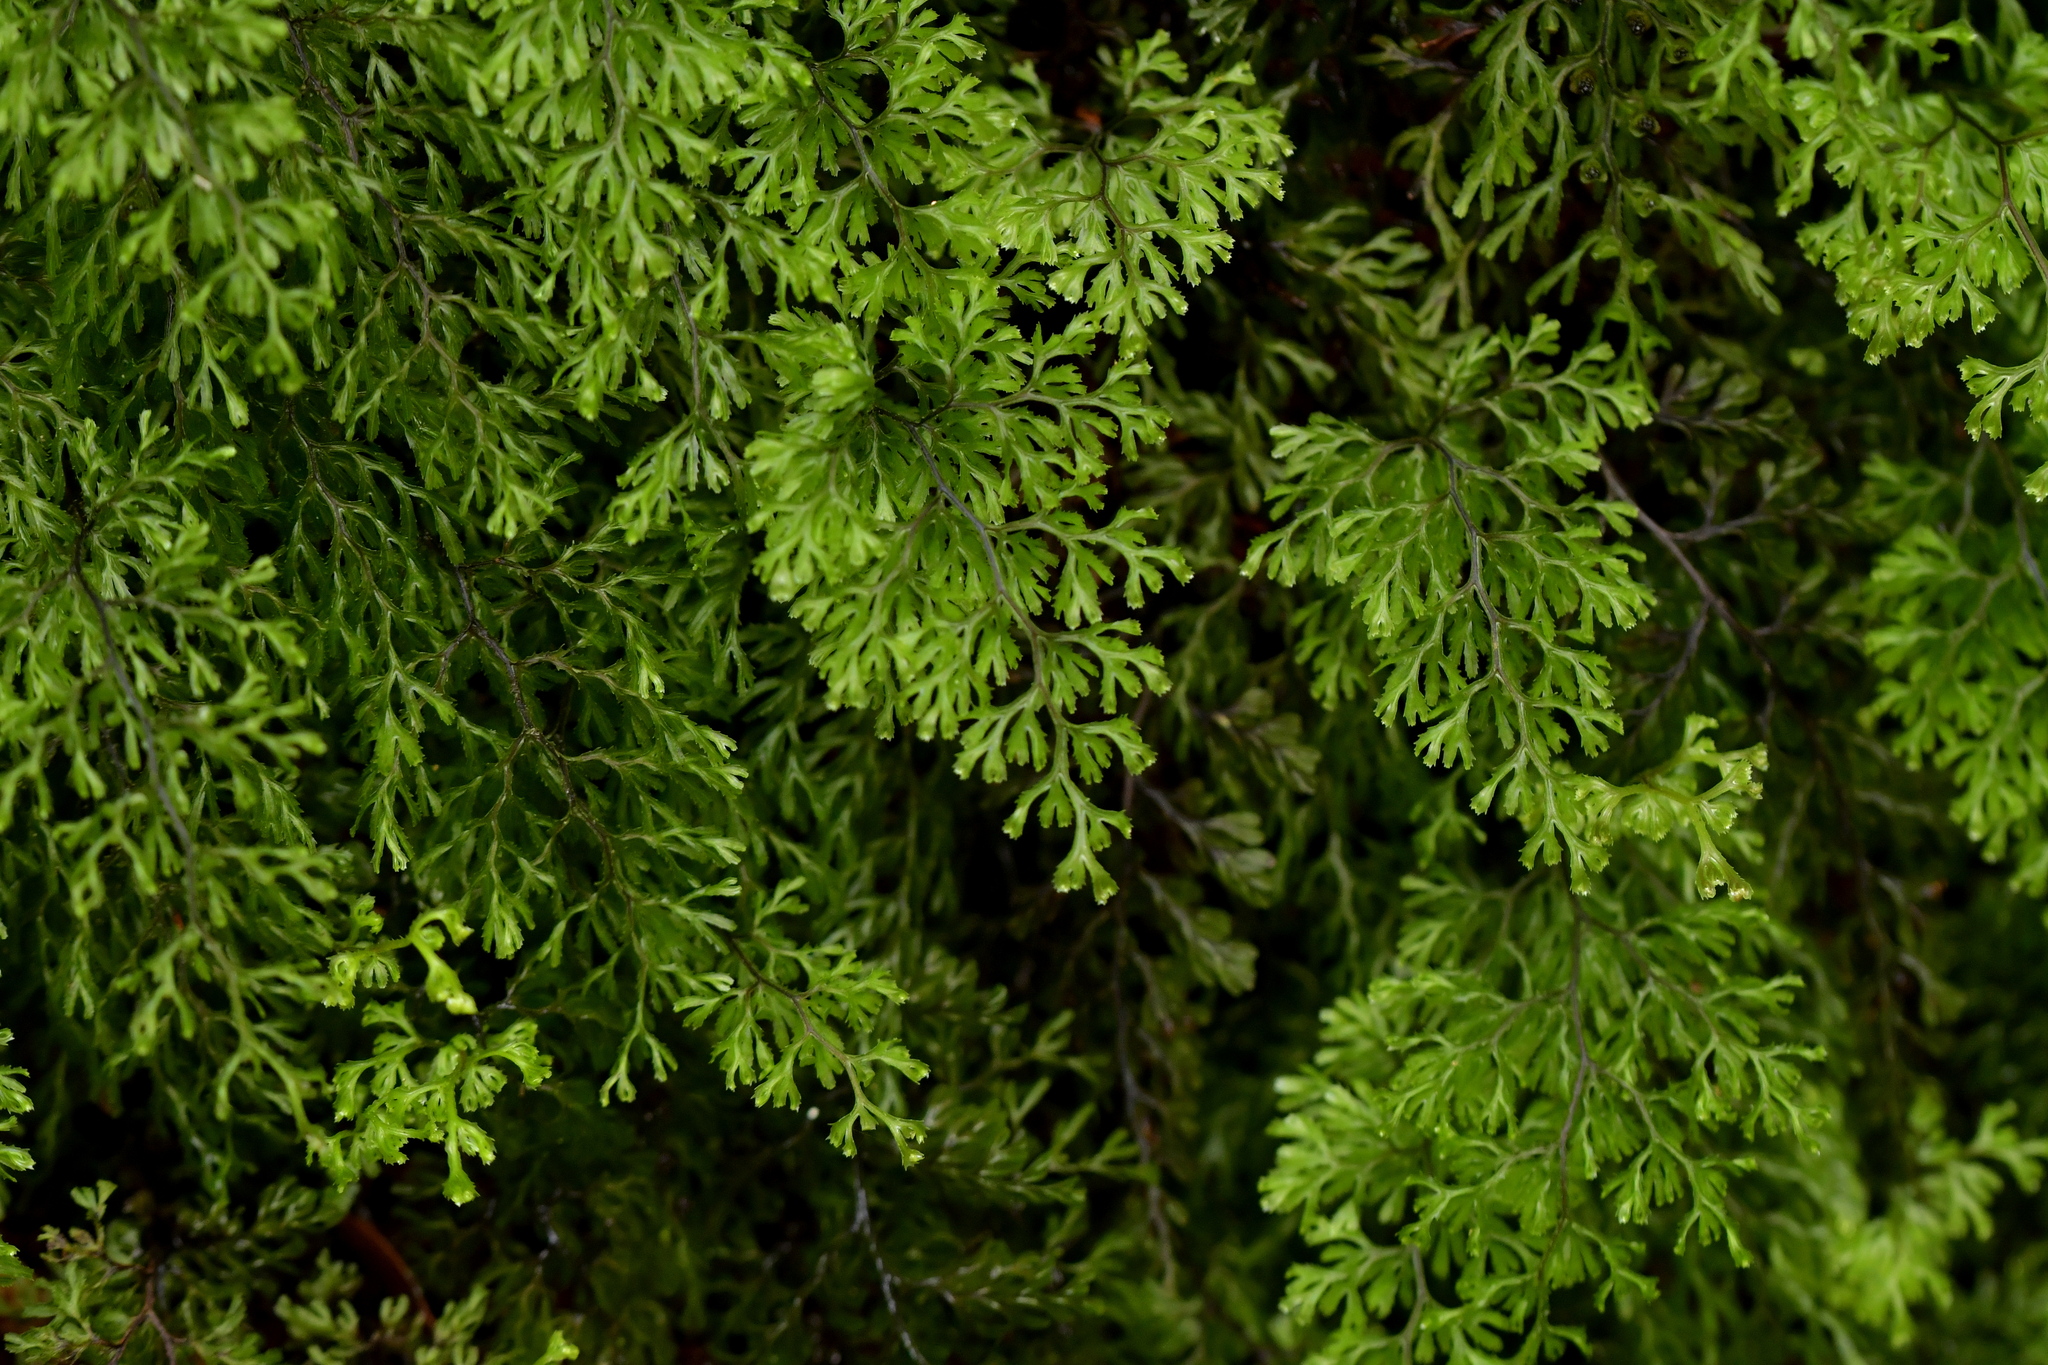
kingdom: Plantae
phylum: Tracheophyta
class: Polypodiopsida
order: Hymenophyllales
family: Hymenophyllaceae
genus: Hymenophyllum
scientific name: Hymenophyllum multifidum
